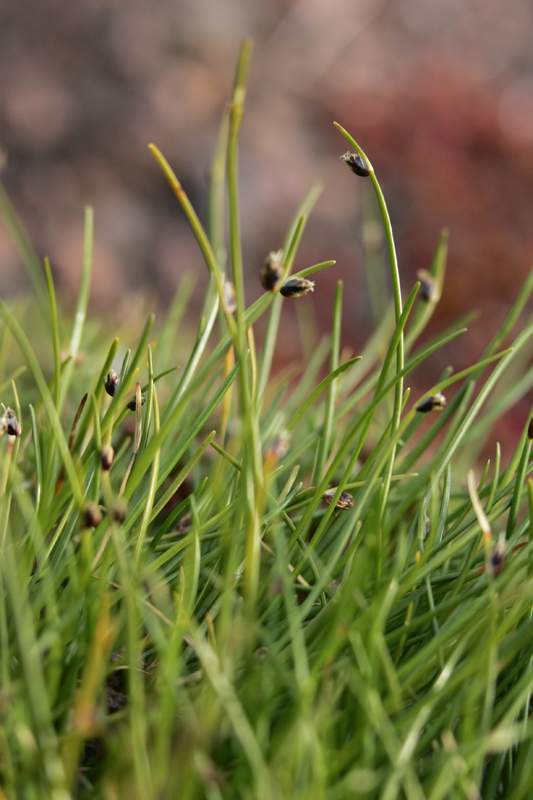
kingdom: Plantae
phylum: Tracheophyta
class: Liliopsida
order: Poales
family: Cyperaceae
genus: Isolepis
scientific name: Isolepis cernua
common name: Slender club-rush
